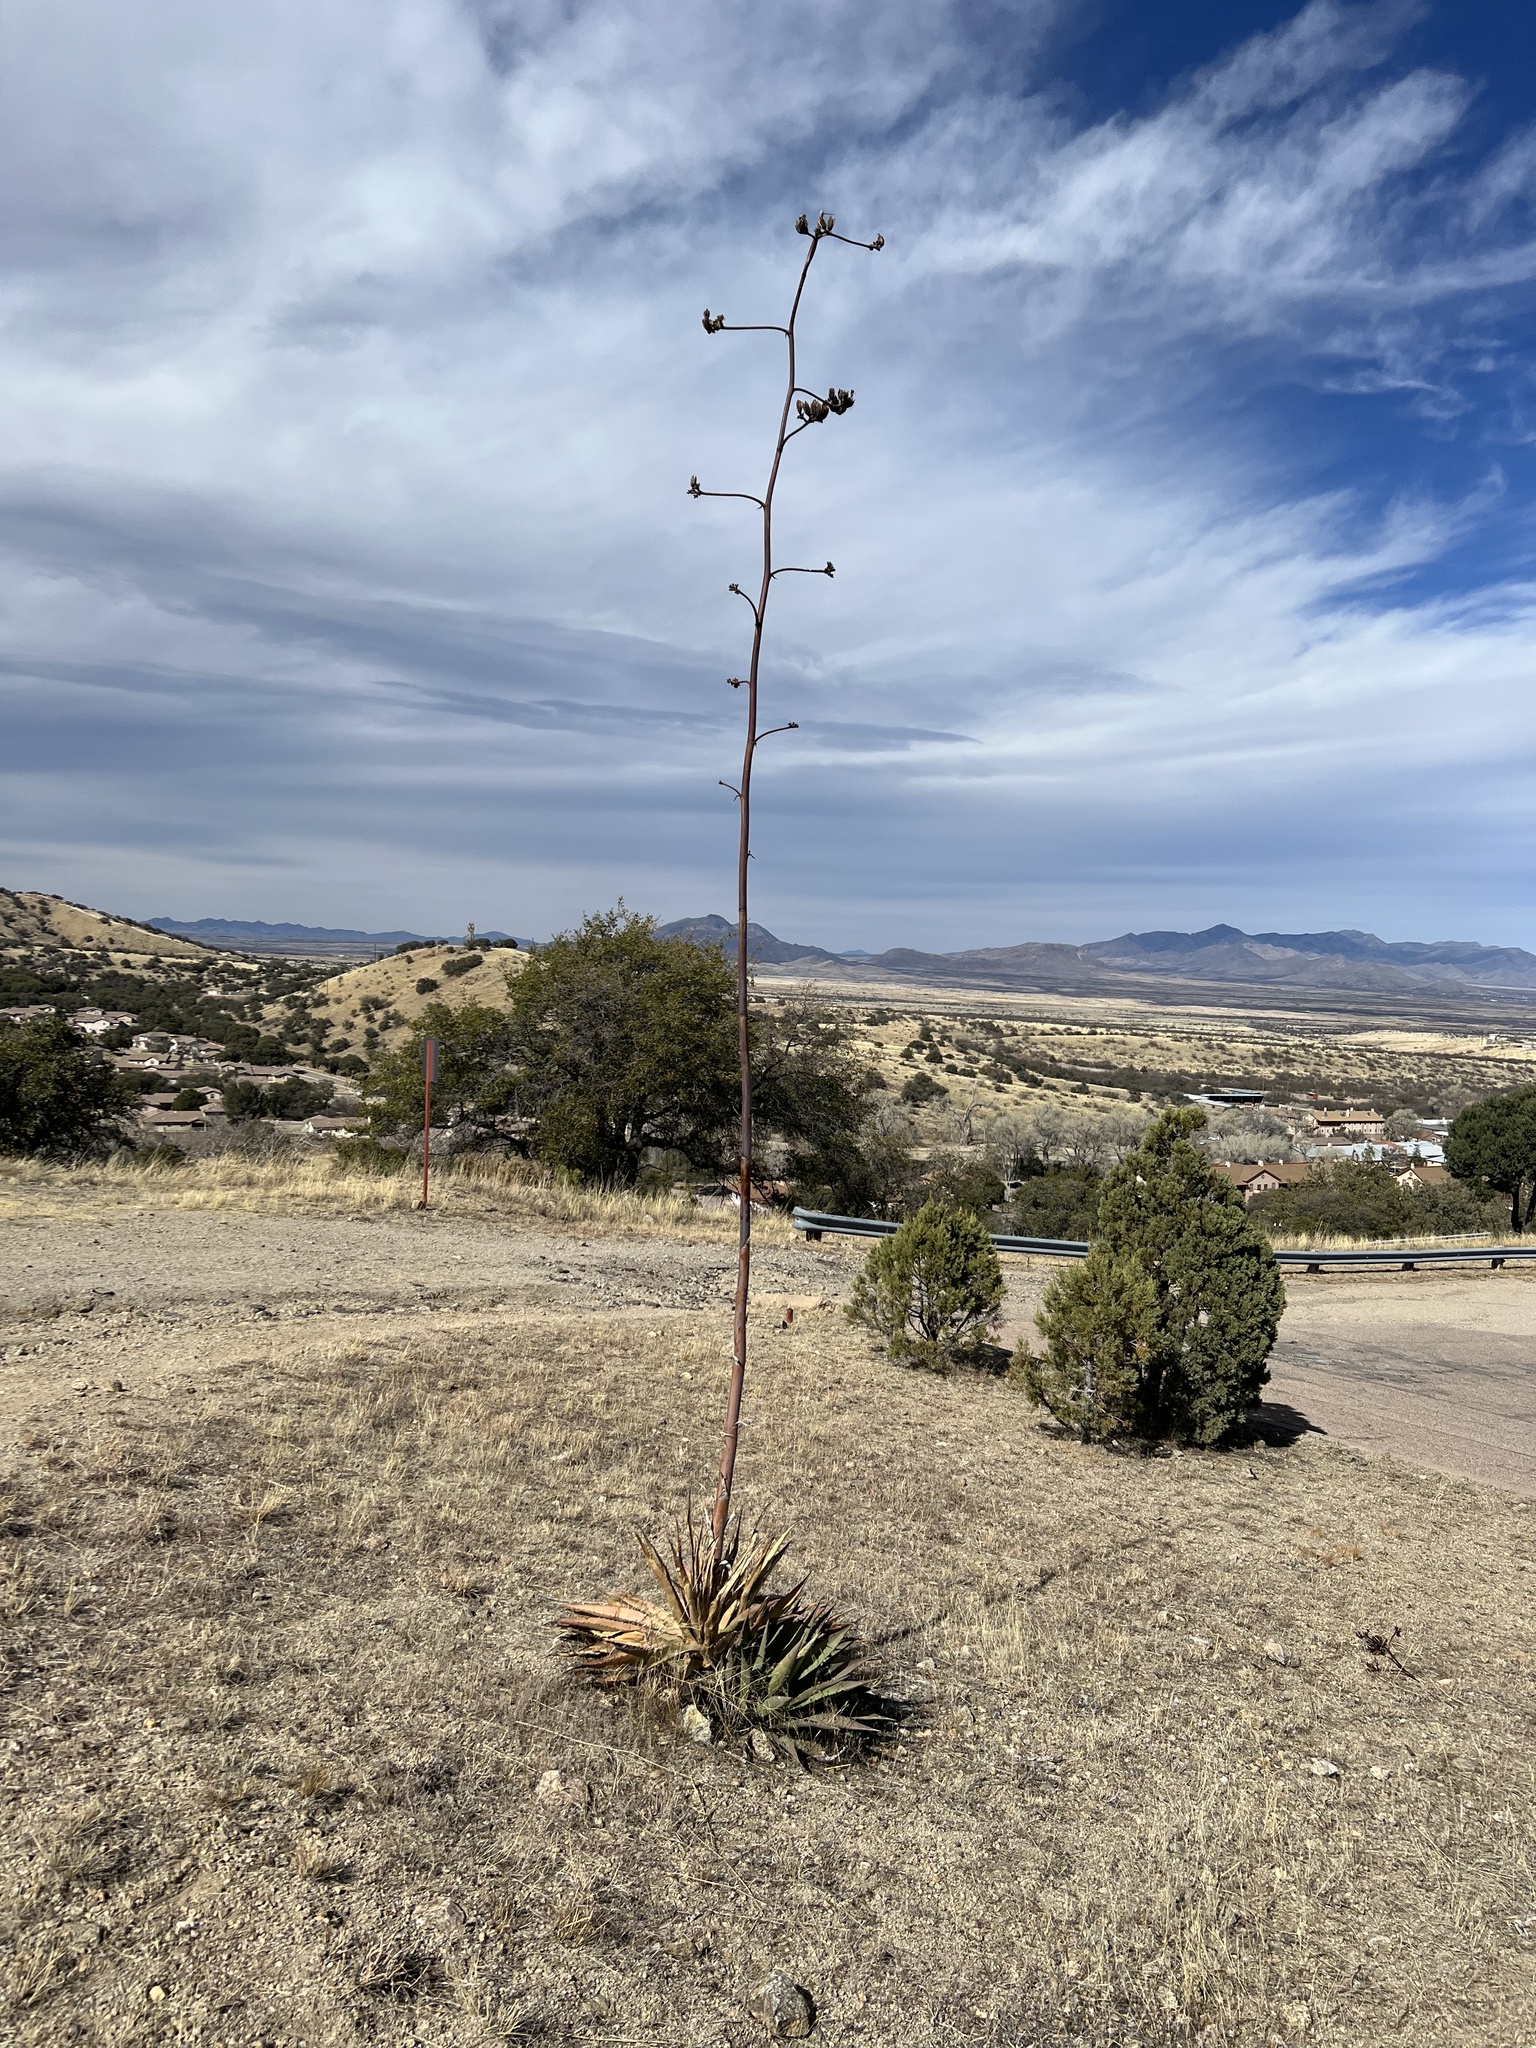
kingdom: Plantae
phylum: Tracheophyta
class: Liliopsida
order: Asparagales
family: Asparagaceae
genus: Agave
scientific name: Agave palmeri
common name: Palmer agave
